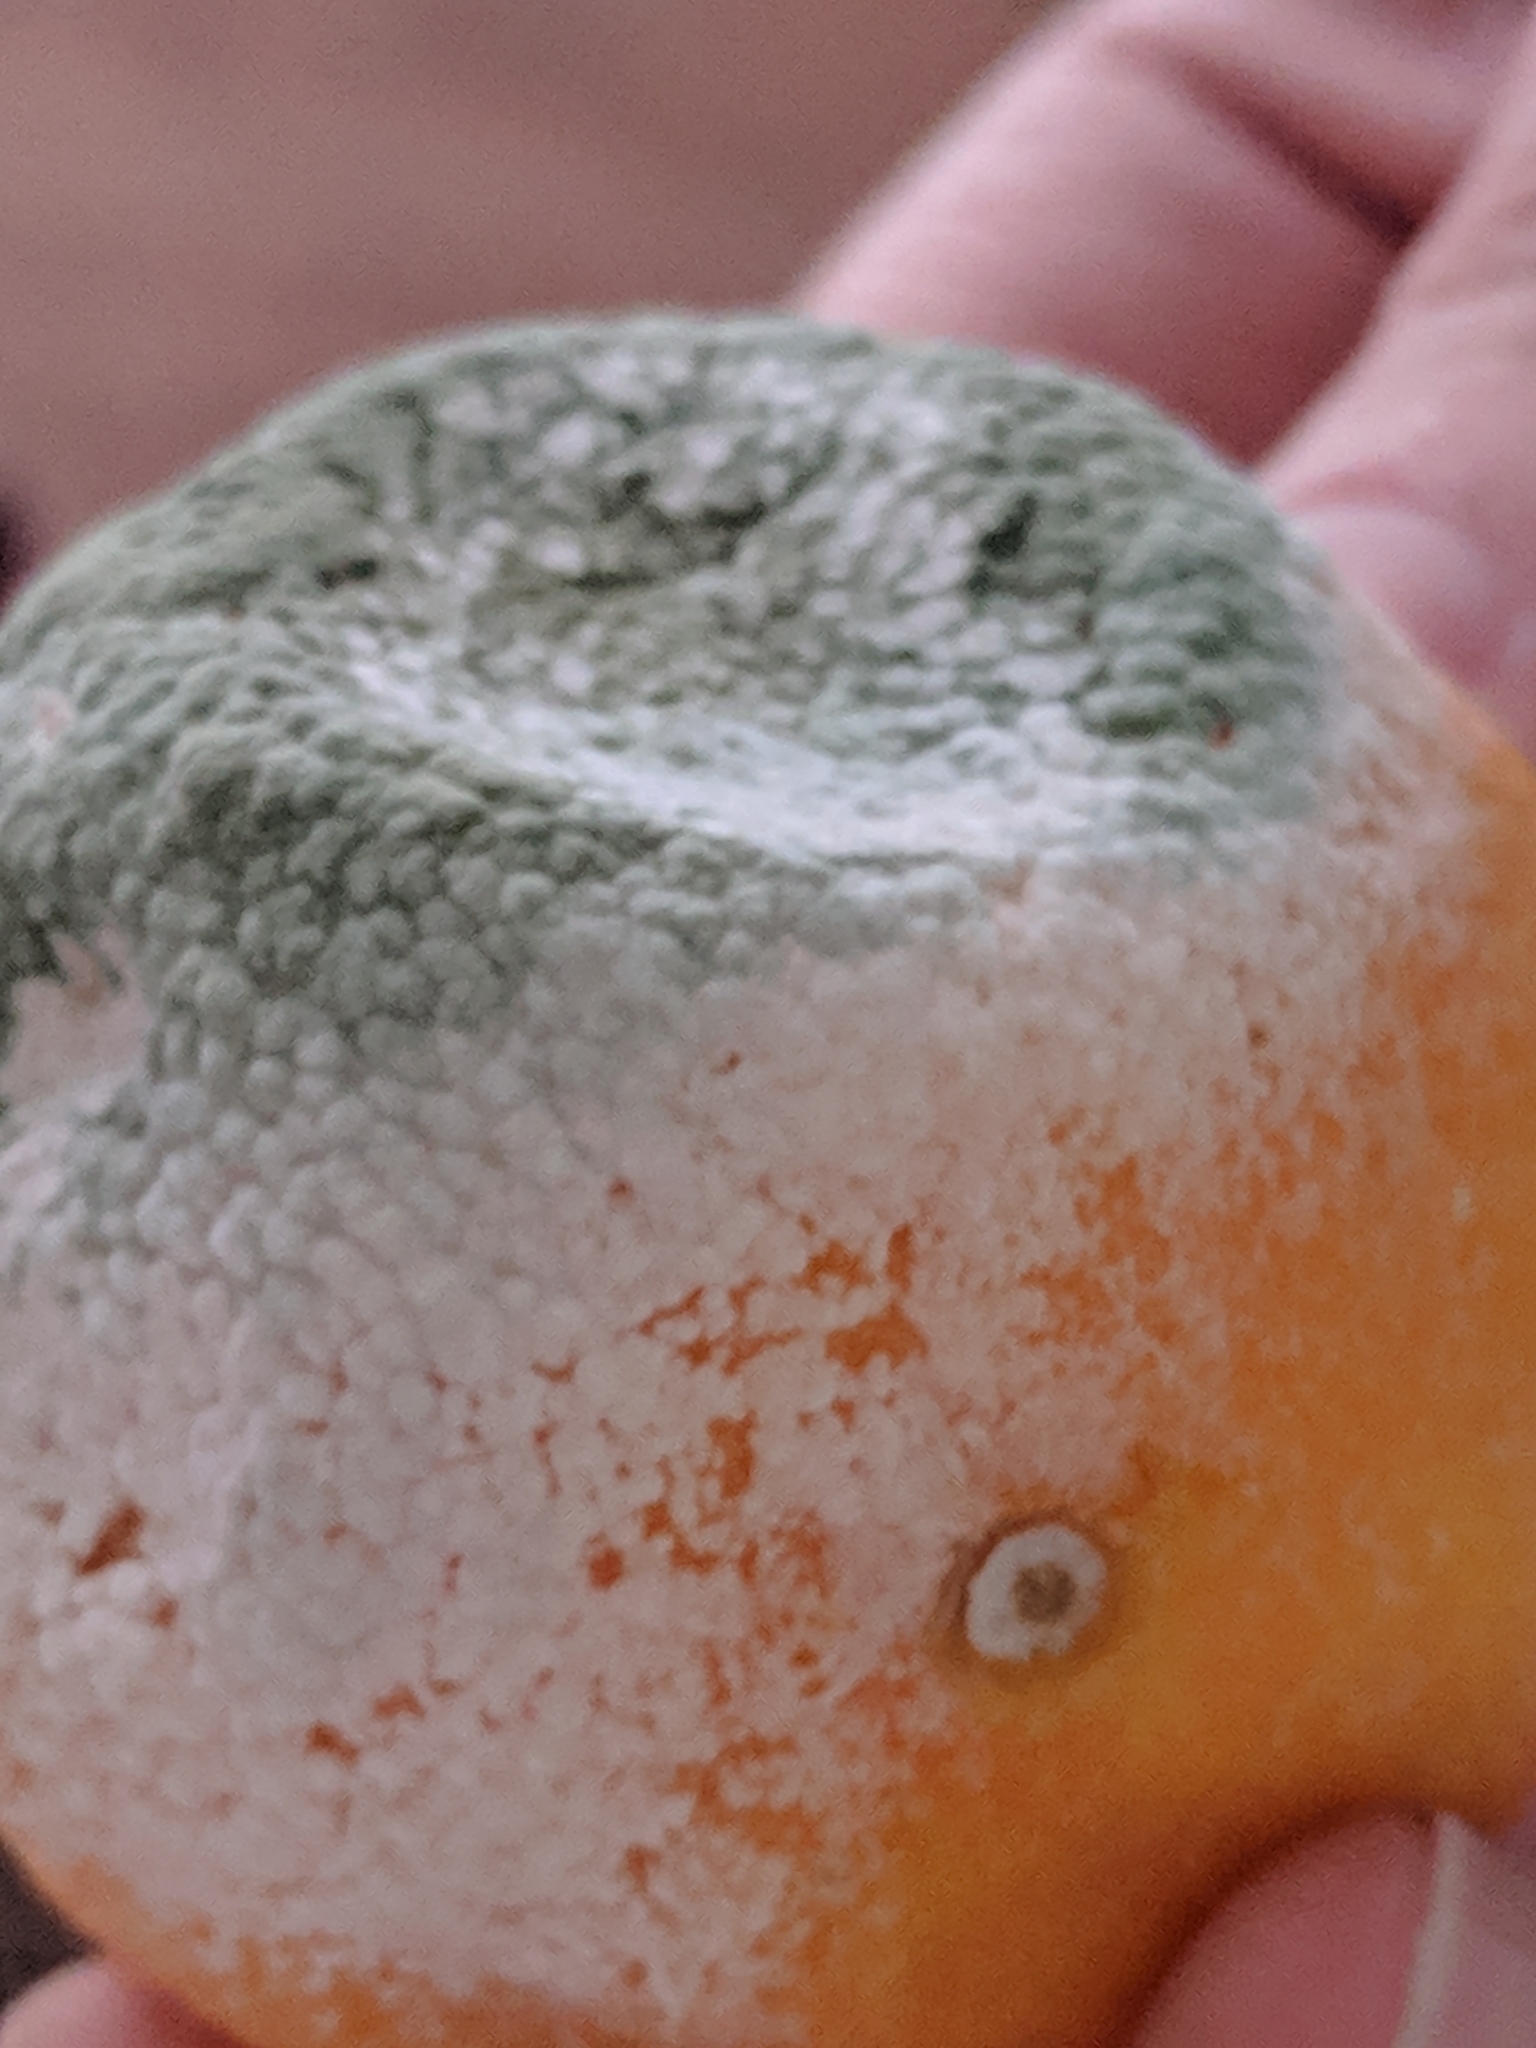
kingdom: Fungi
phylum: Ascomycota
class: Eurotiomycetes
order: Eurotiales
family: Aspergillaceae
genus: Penicillium
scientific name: Penicillium digitatum
